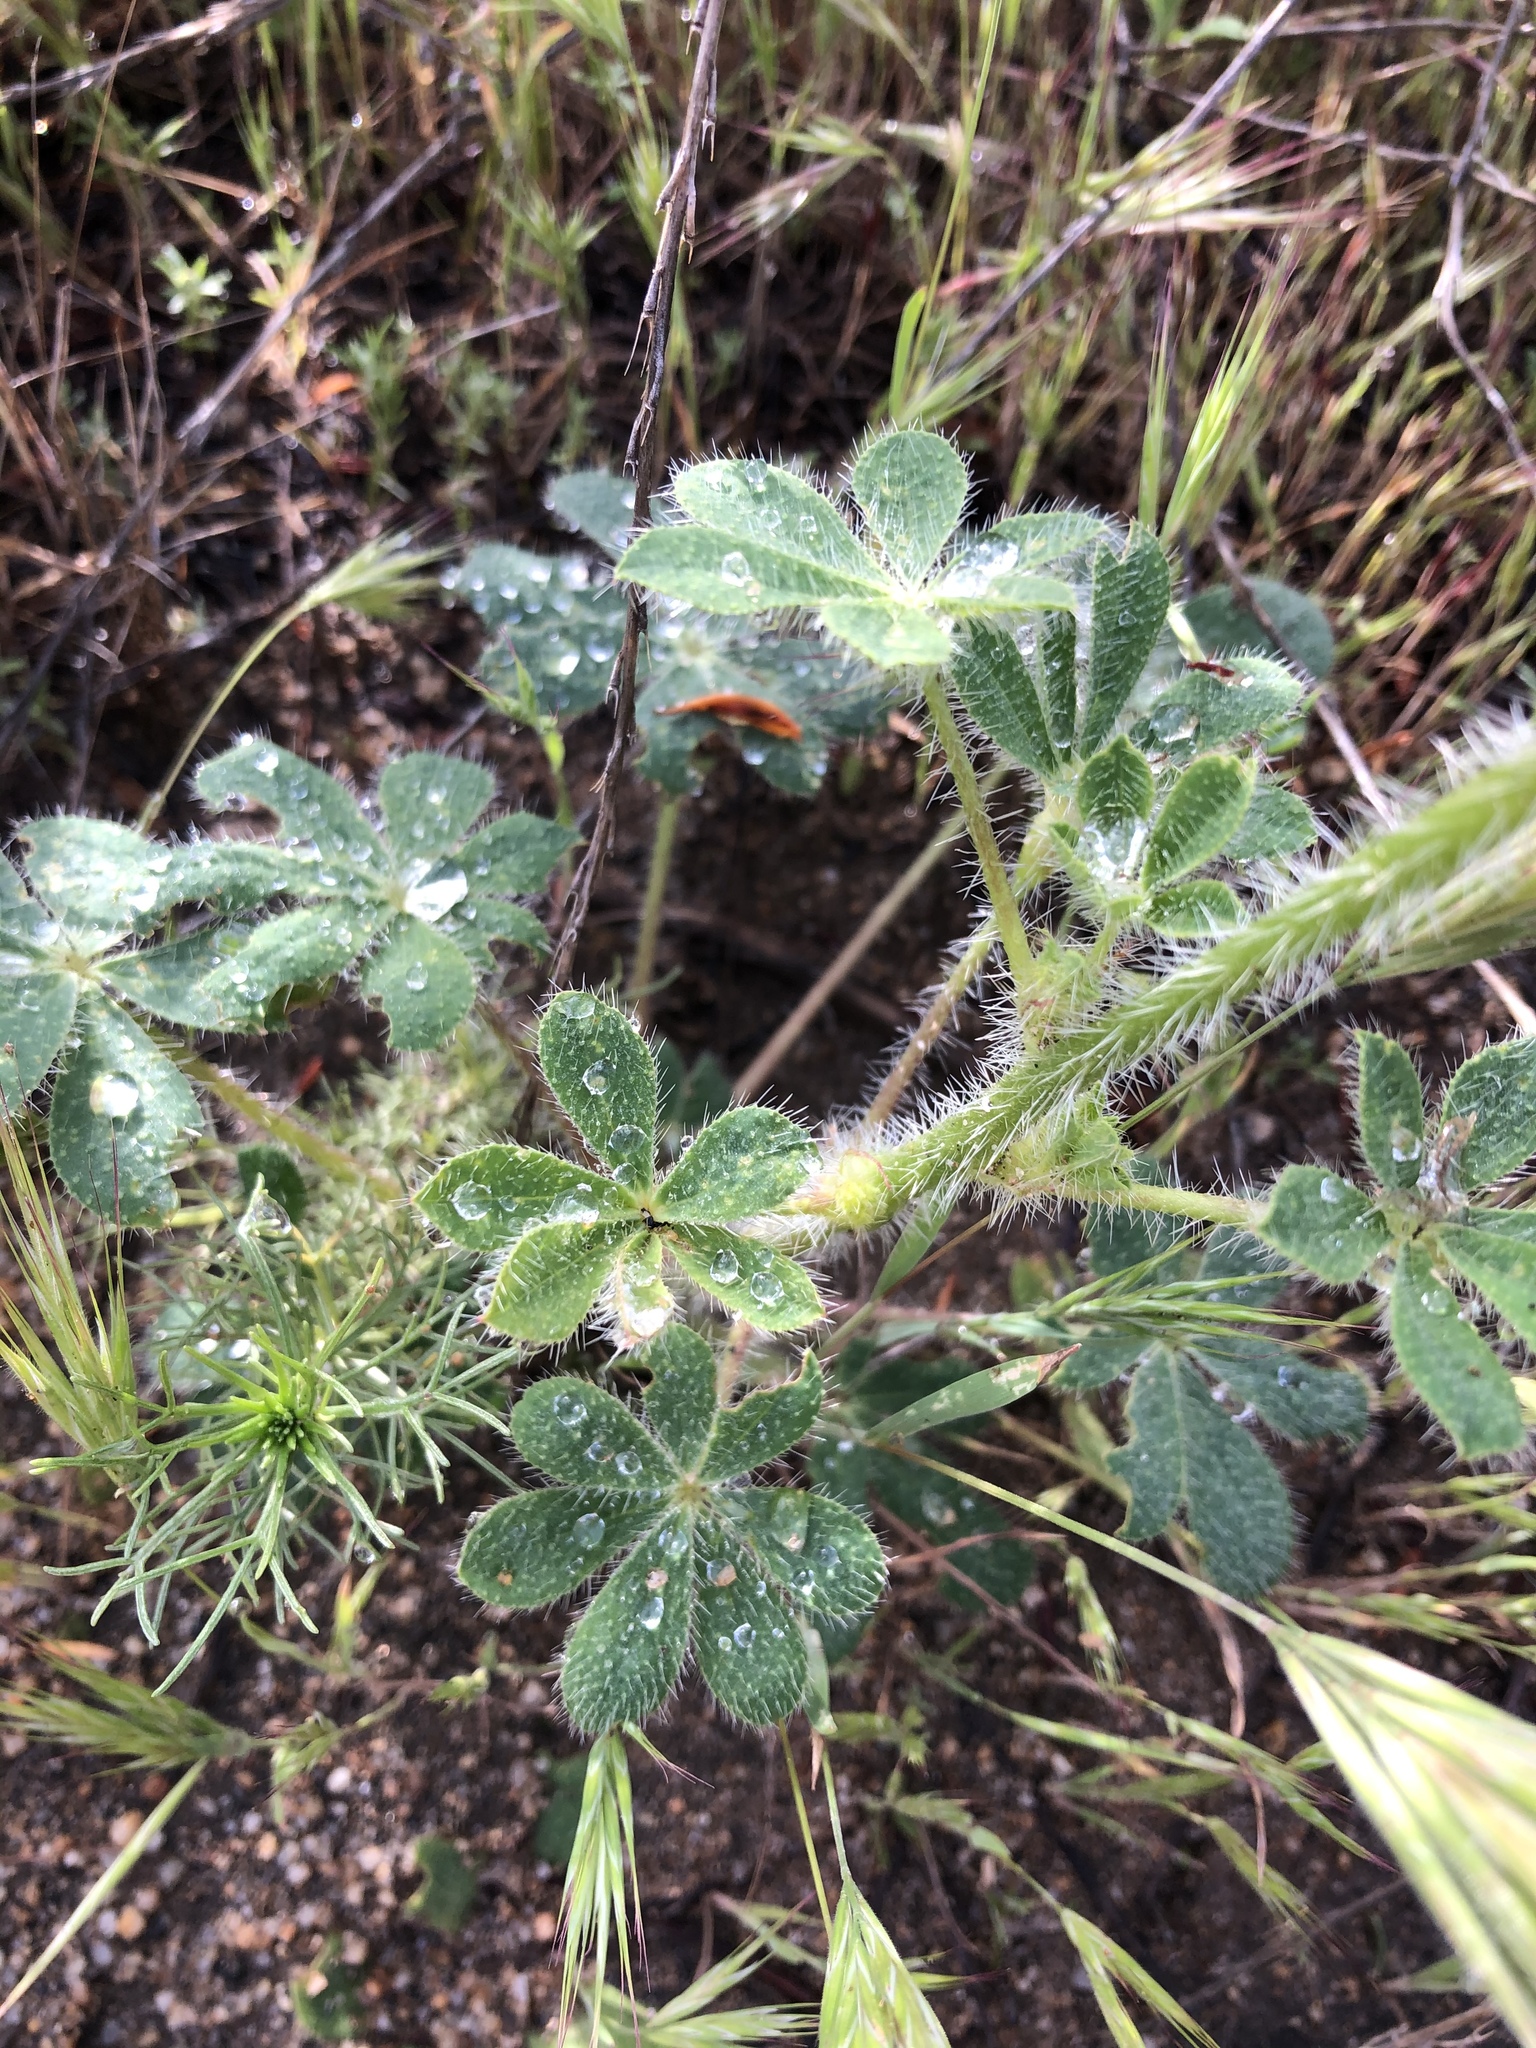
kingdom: Plantae
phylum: Tracheophyta
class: Magnoliopsida
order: Fabales
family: Fabaceae
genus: Lupinus
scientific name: Lupinus hirsutissimus
